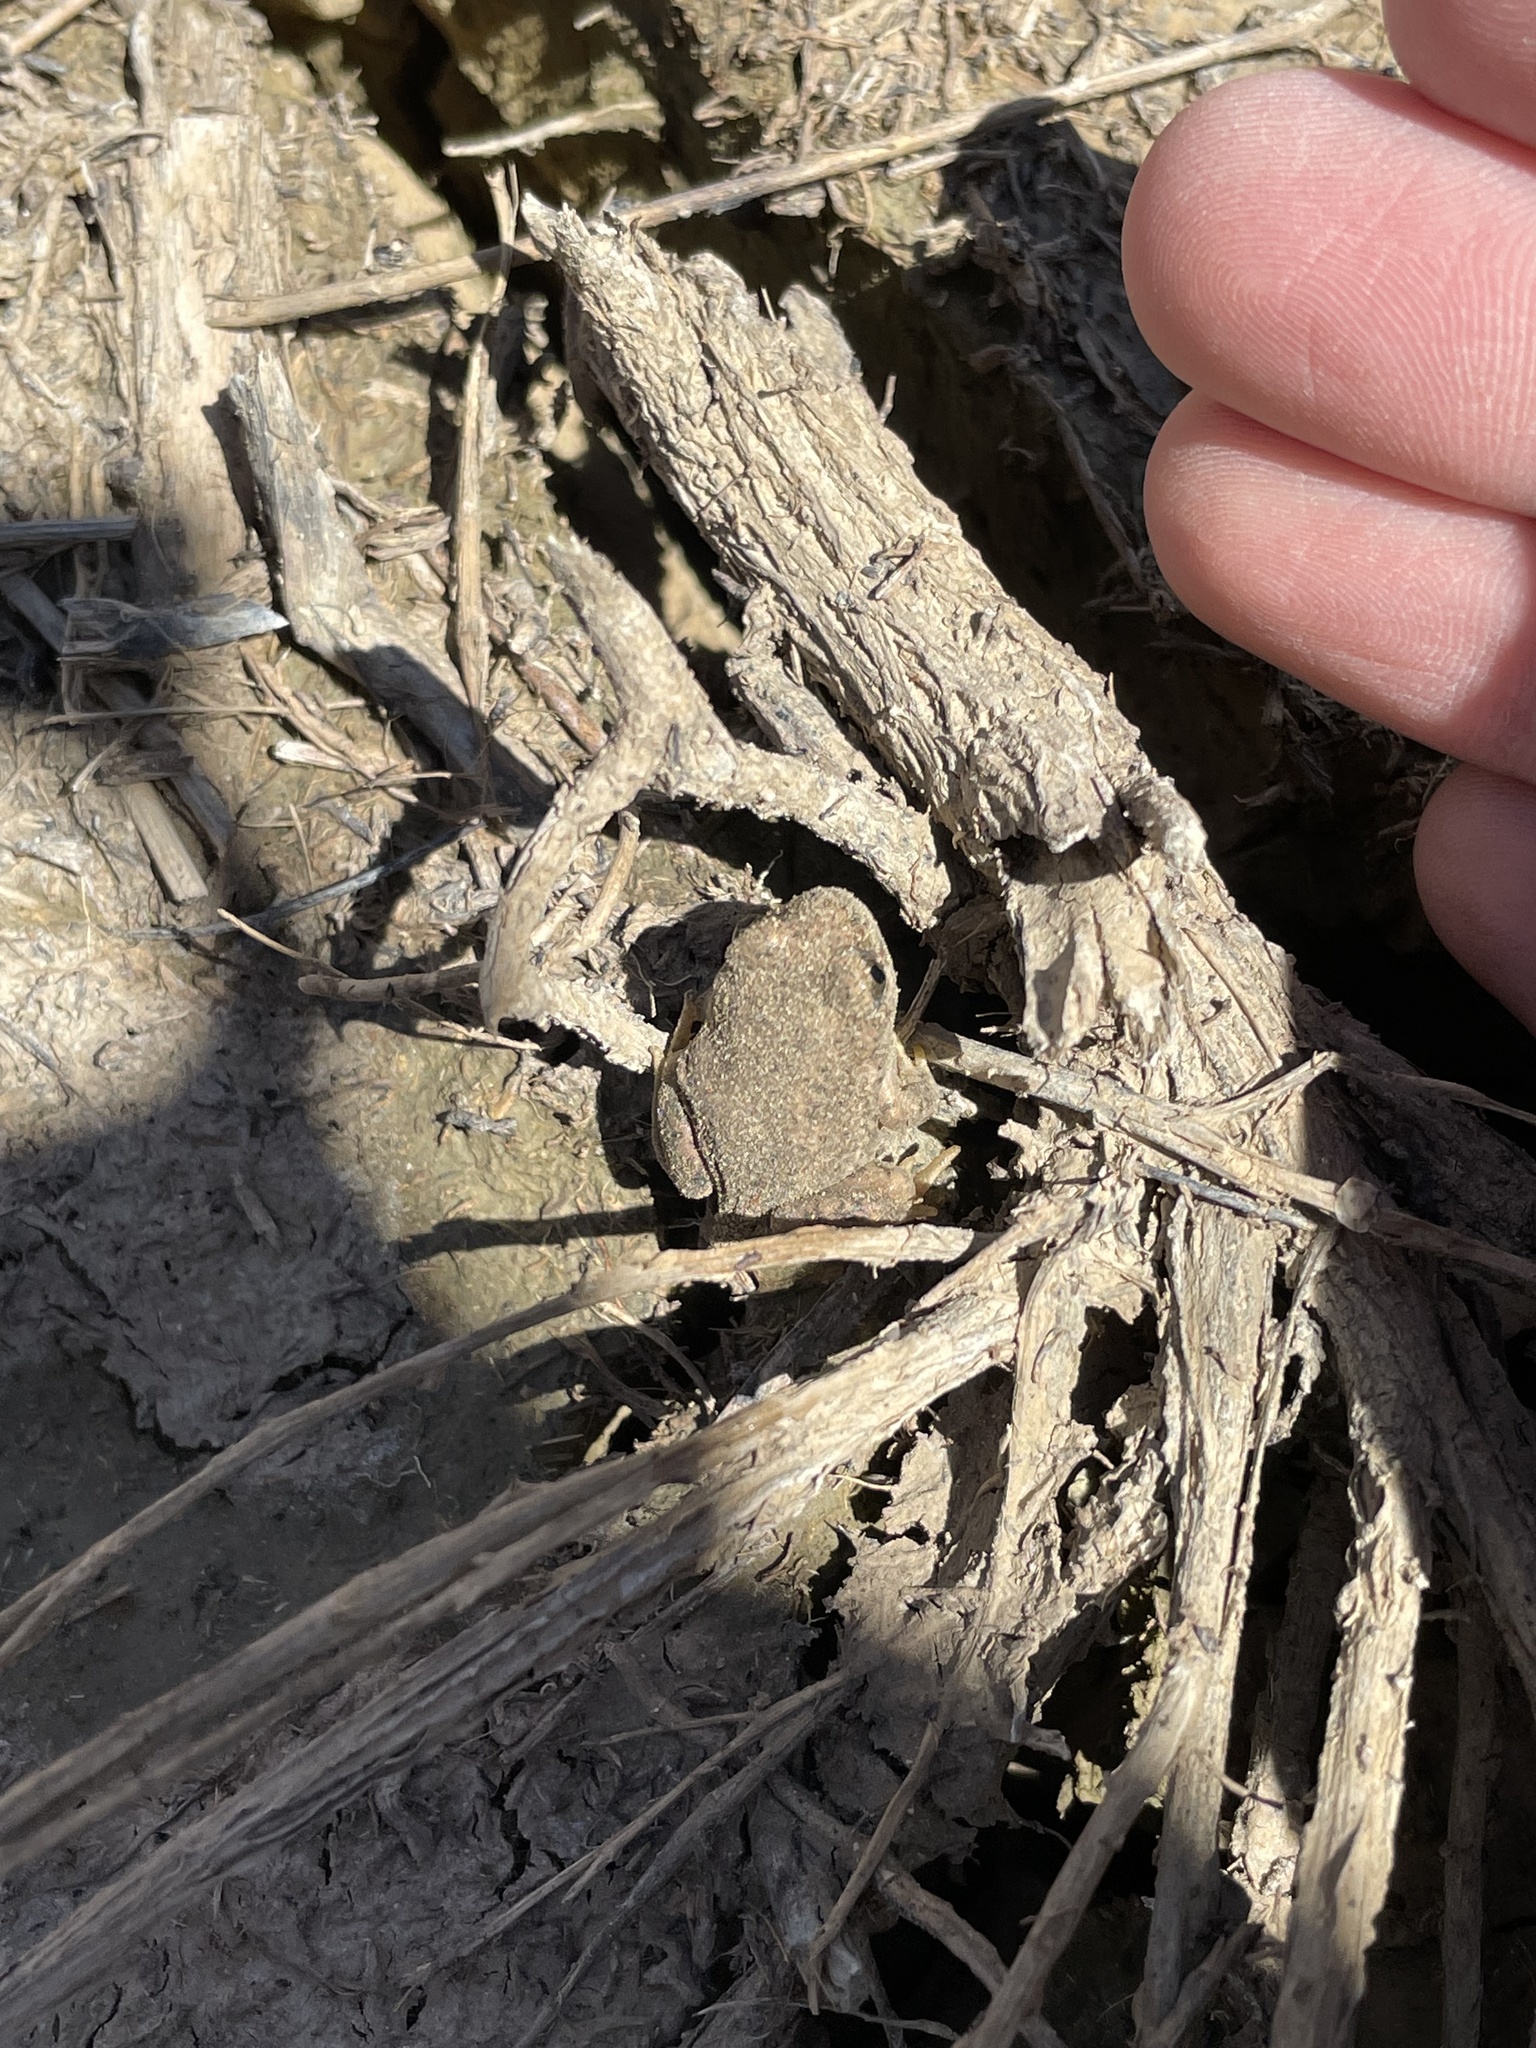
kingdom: Animalia
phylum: Chordata
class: Amphibia
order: Anura
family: Scaphiopodidae
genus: Spea
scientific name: Spea multiplicata
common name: Mexican spadefoot
